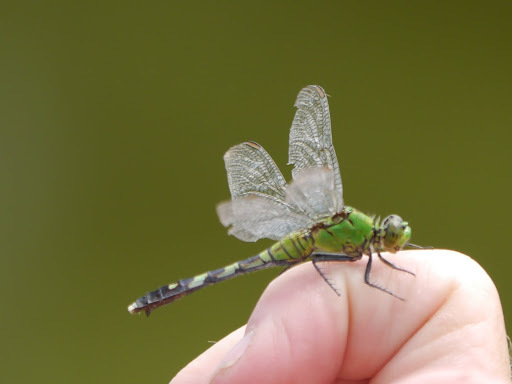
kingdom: Animalia
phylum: Arthropoda
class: Insecta
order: Odonata
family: Libellulidae
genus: Erythemis
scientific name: Erythemis simplicicollis
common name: Eastern pondhawk
